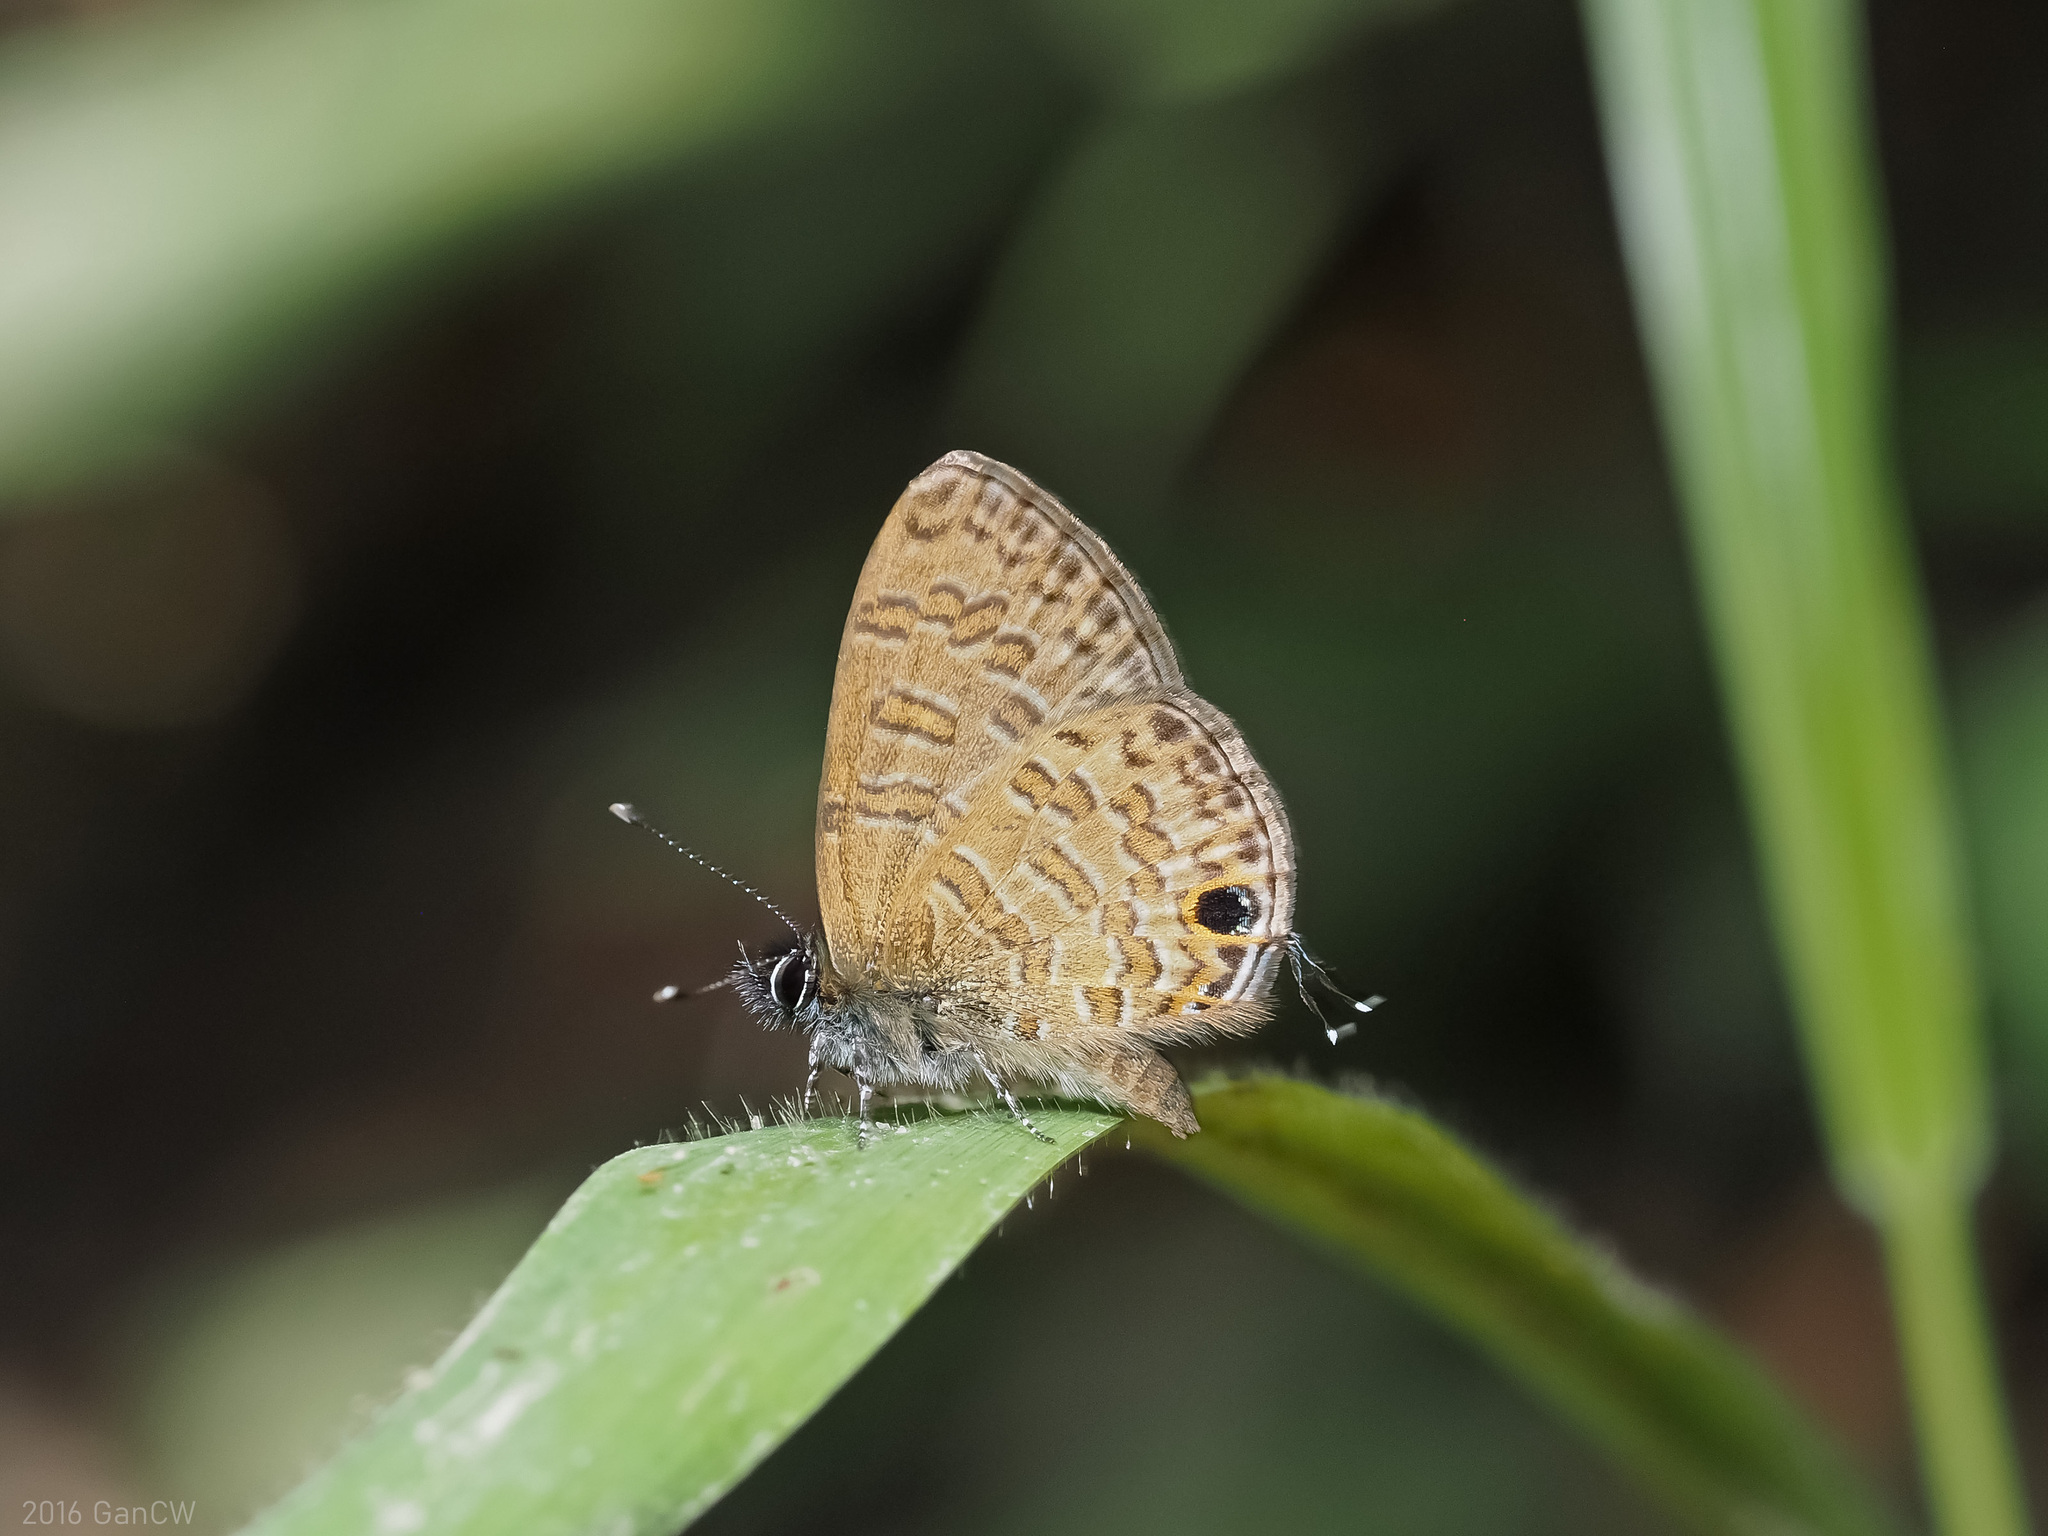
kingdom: Animalia
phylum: Arthropoda
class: Insecta
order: Lepidoptera
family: Lycaenidae
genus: Prosotas
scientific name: Prosotas nora
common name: Common line blue
